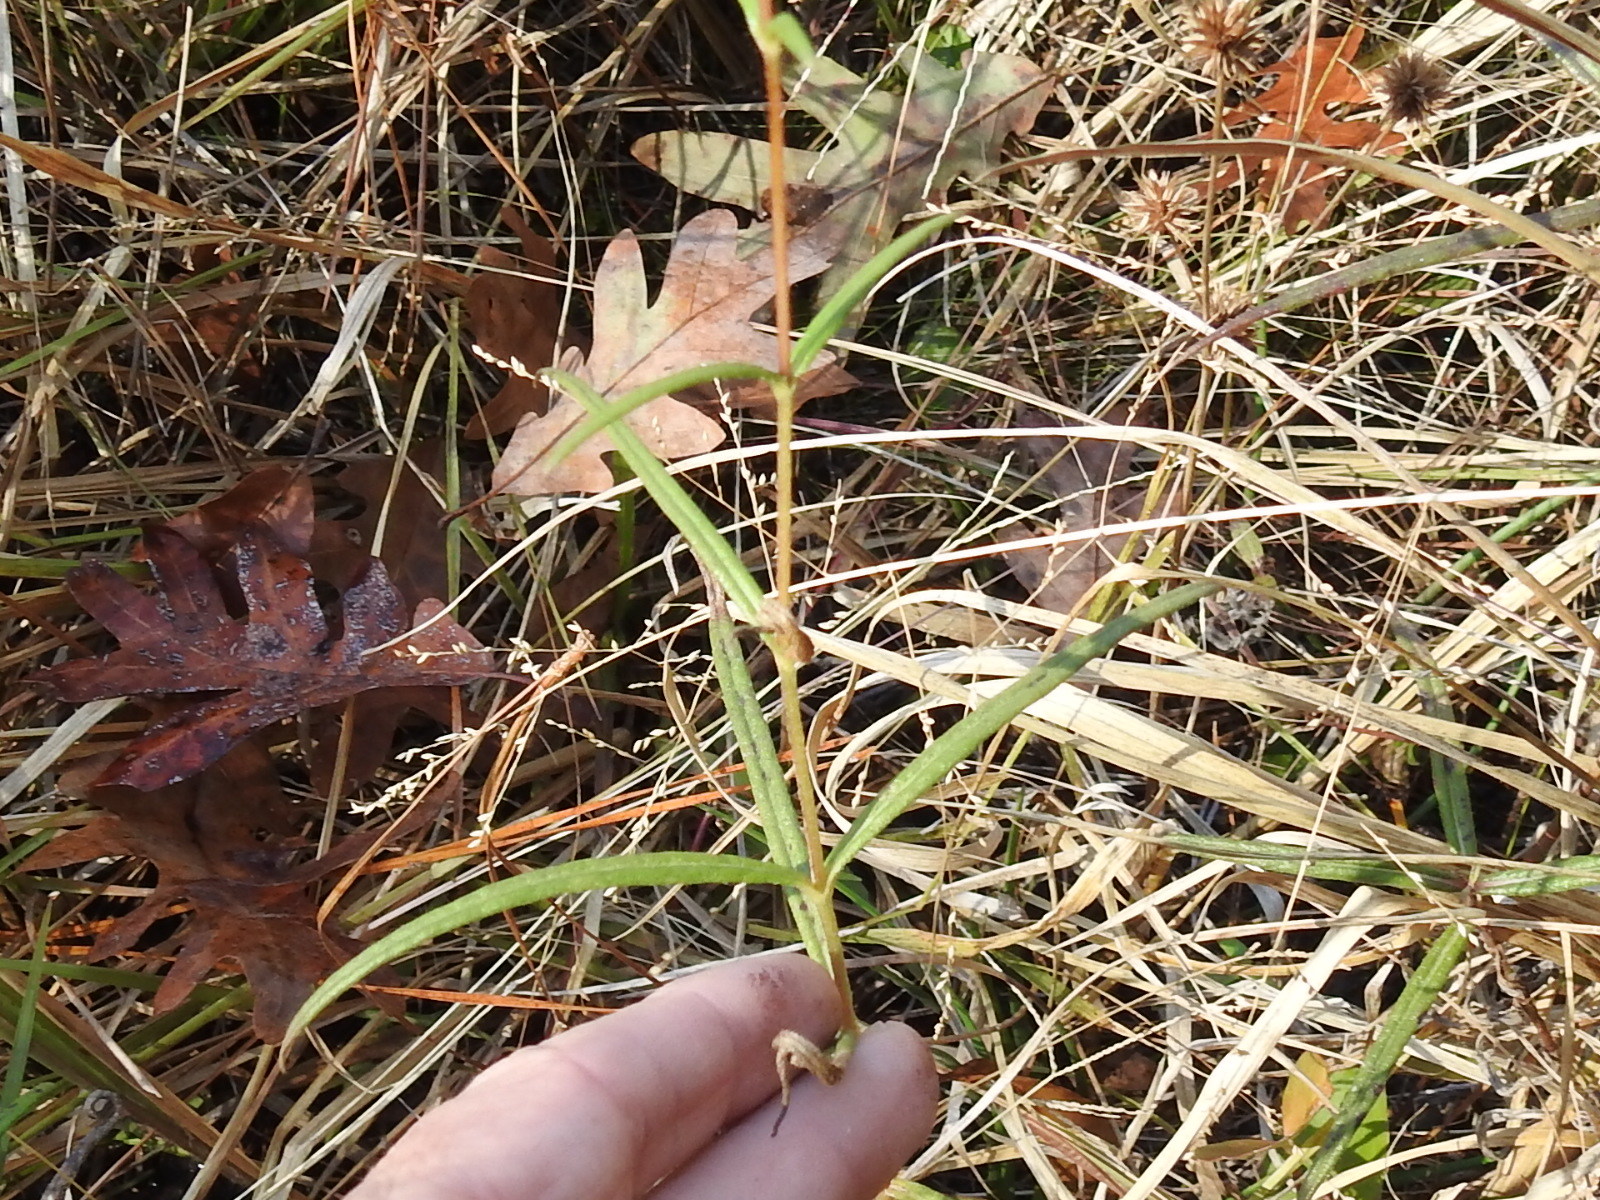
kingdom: Plantae
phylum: Tracheophyta
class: Magnoliopsida
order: Asterales
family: Asteraceae
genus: Helianthus
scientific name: Helianthus angustifolius
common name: Swamp sunflower
